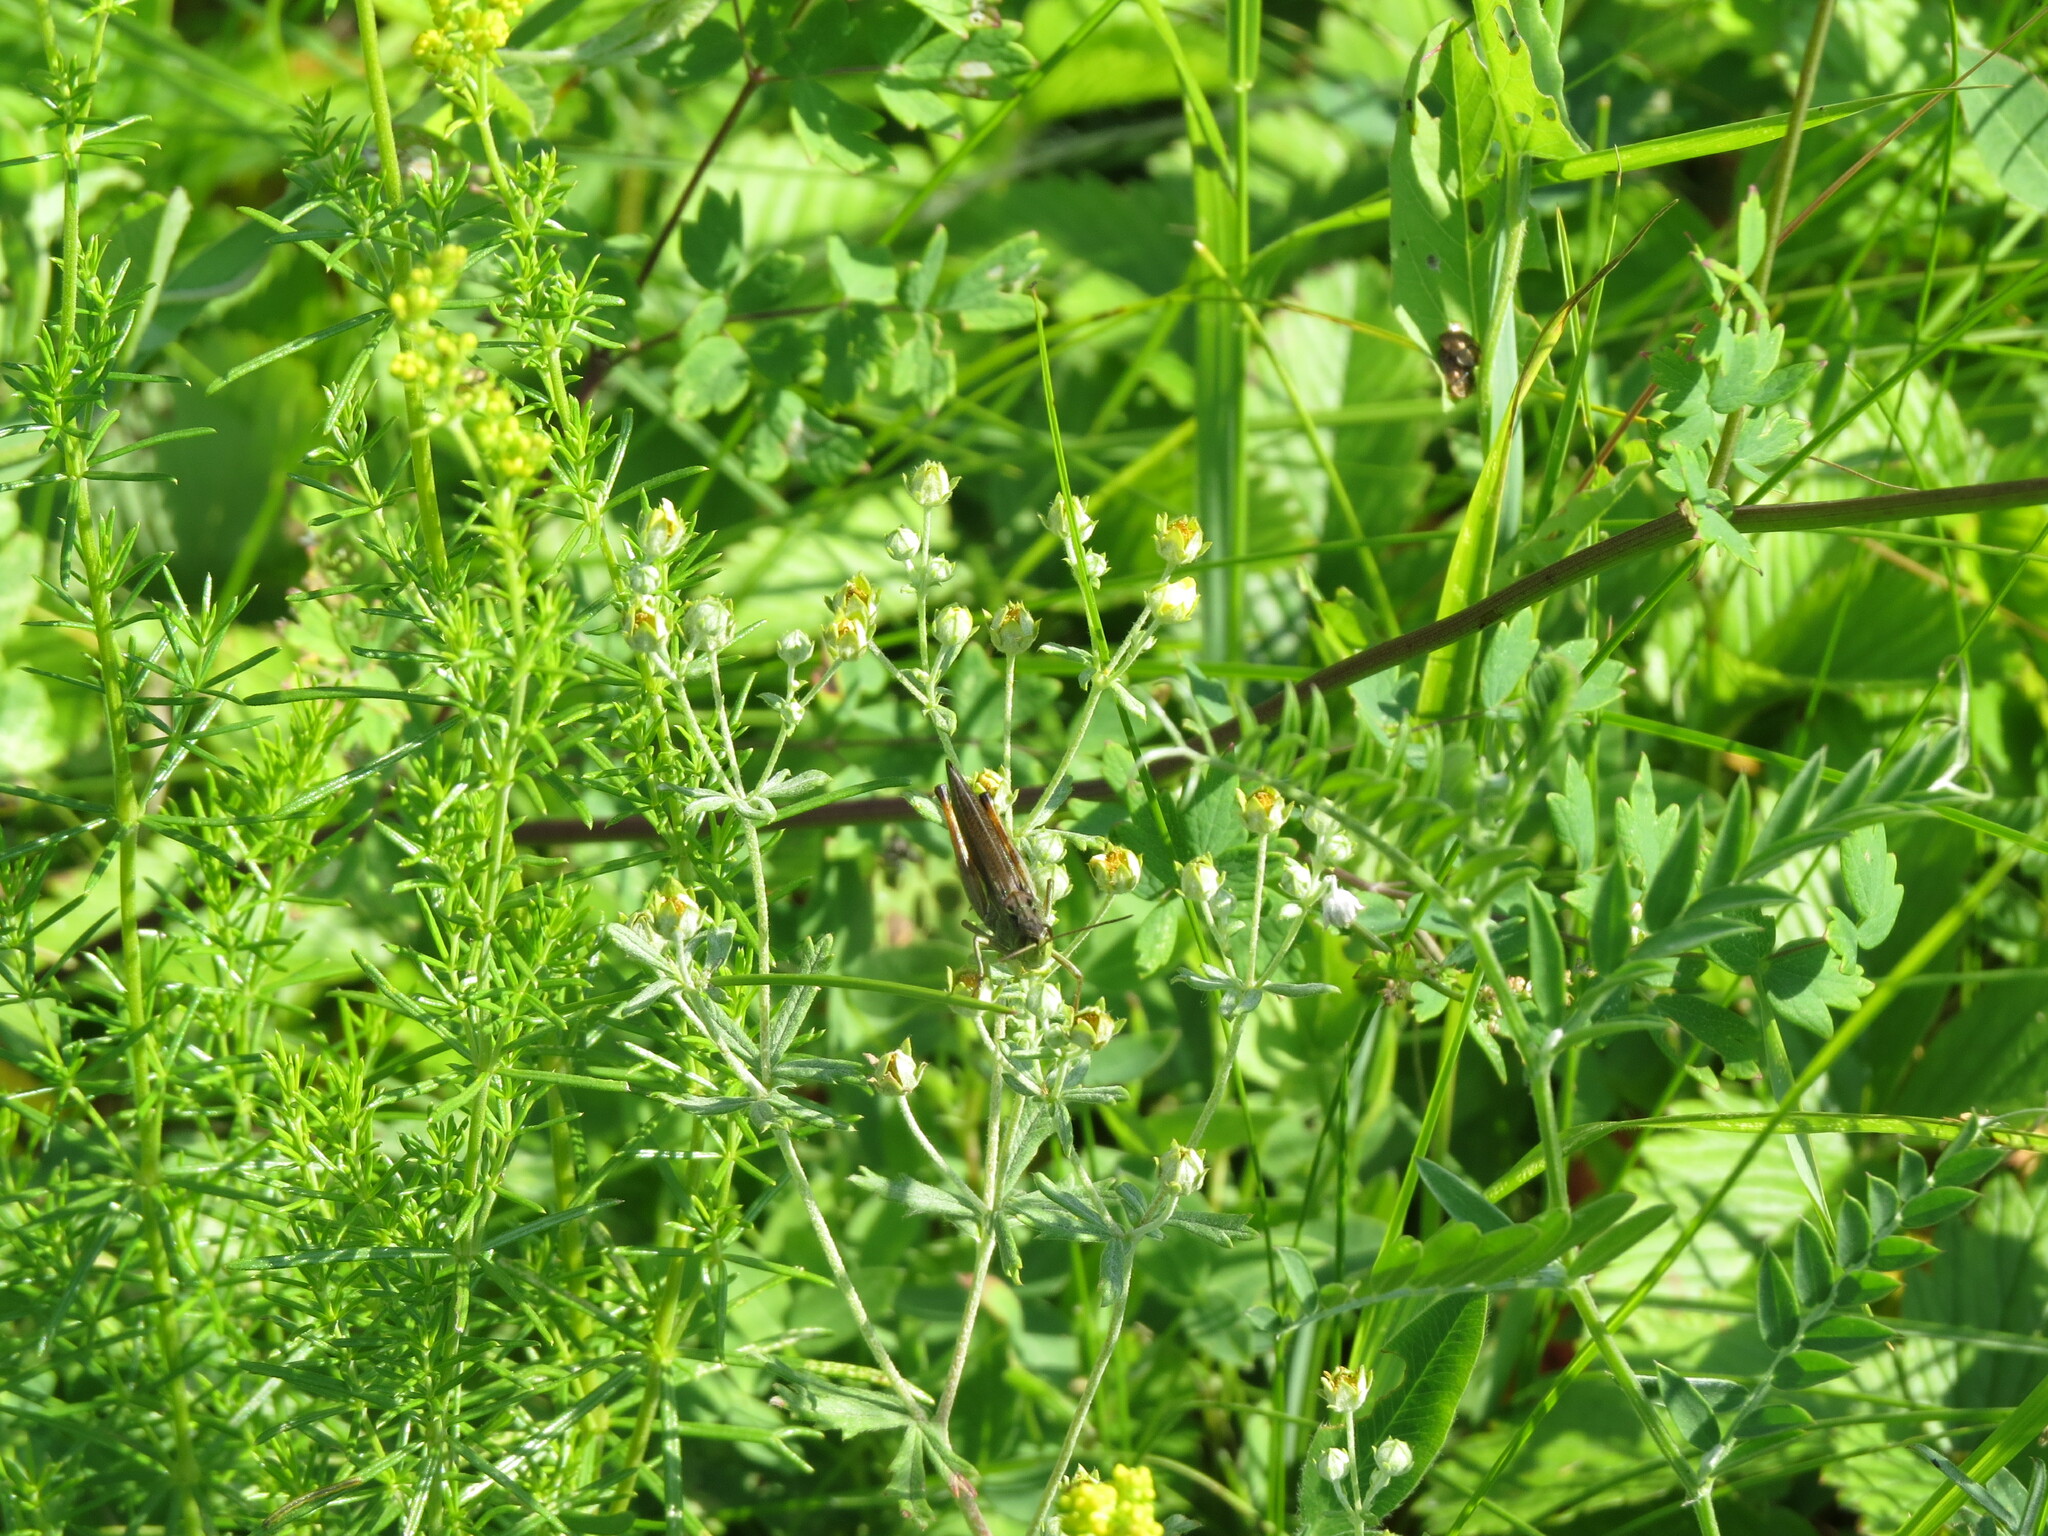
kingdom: Animalia
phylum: Arthropoda
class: Insecta
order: Orthoptera
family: Acrididae
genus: Stauroderus
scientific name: Stauroderus scalaris
